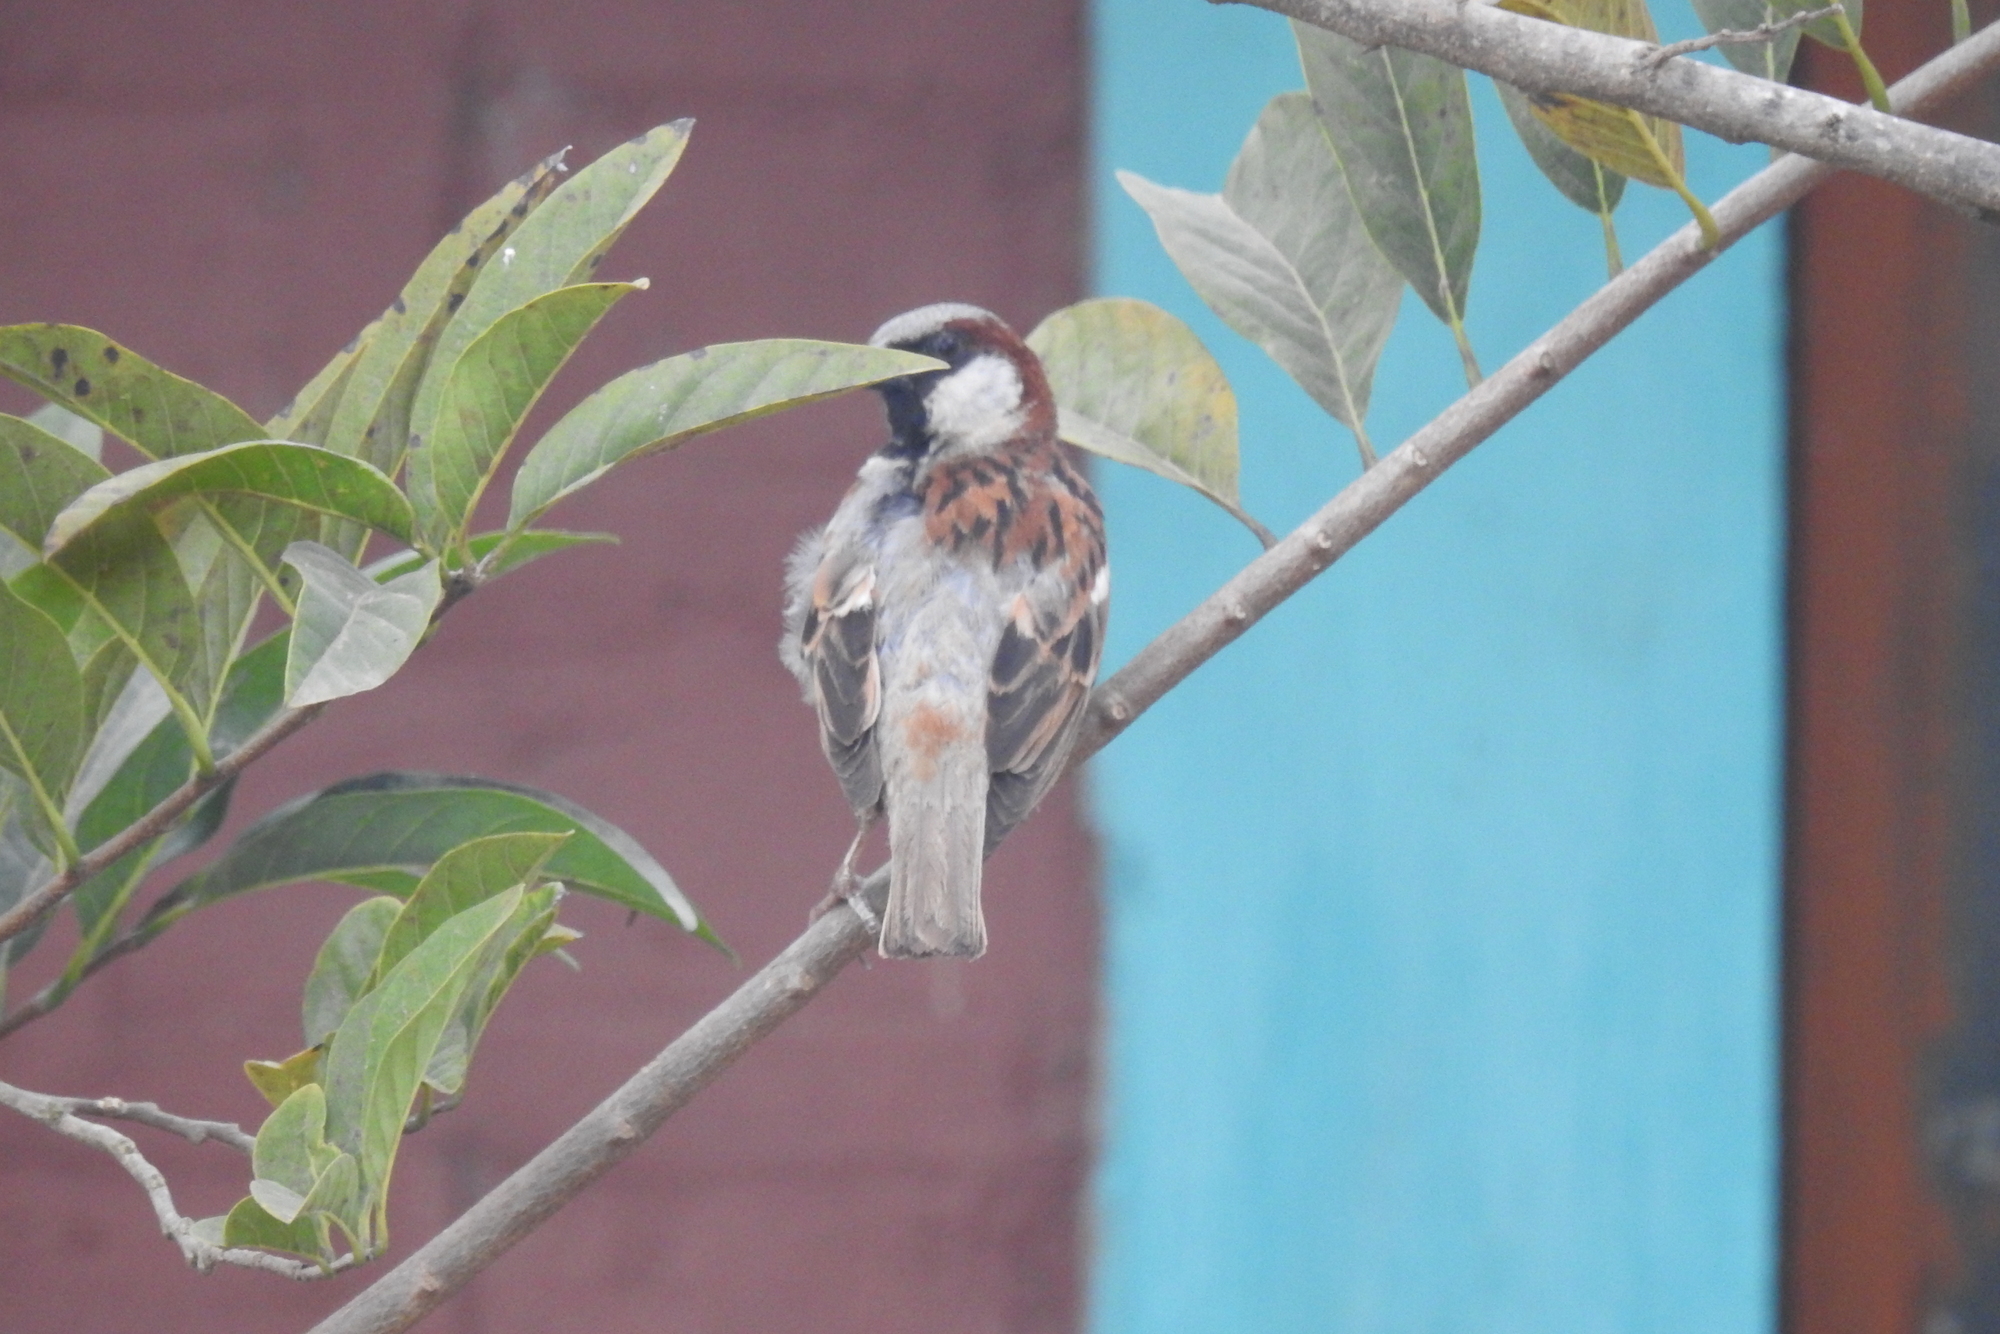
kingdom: Animalia
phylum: Chordata
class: Aves
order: Passeriformes
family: Passeridae
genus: Passer
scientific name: Passer domesticus
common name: House sparrow
